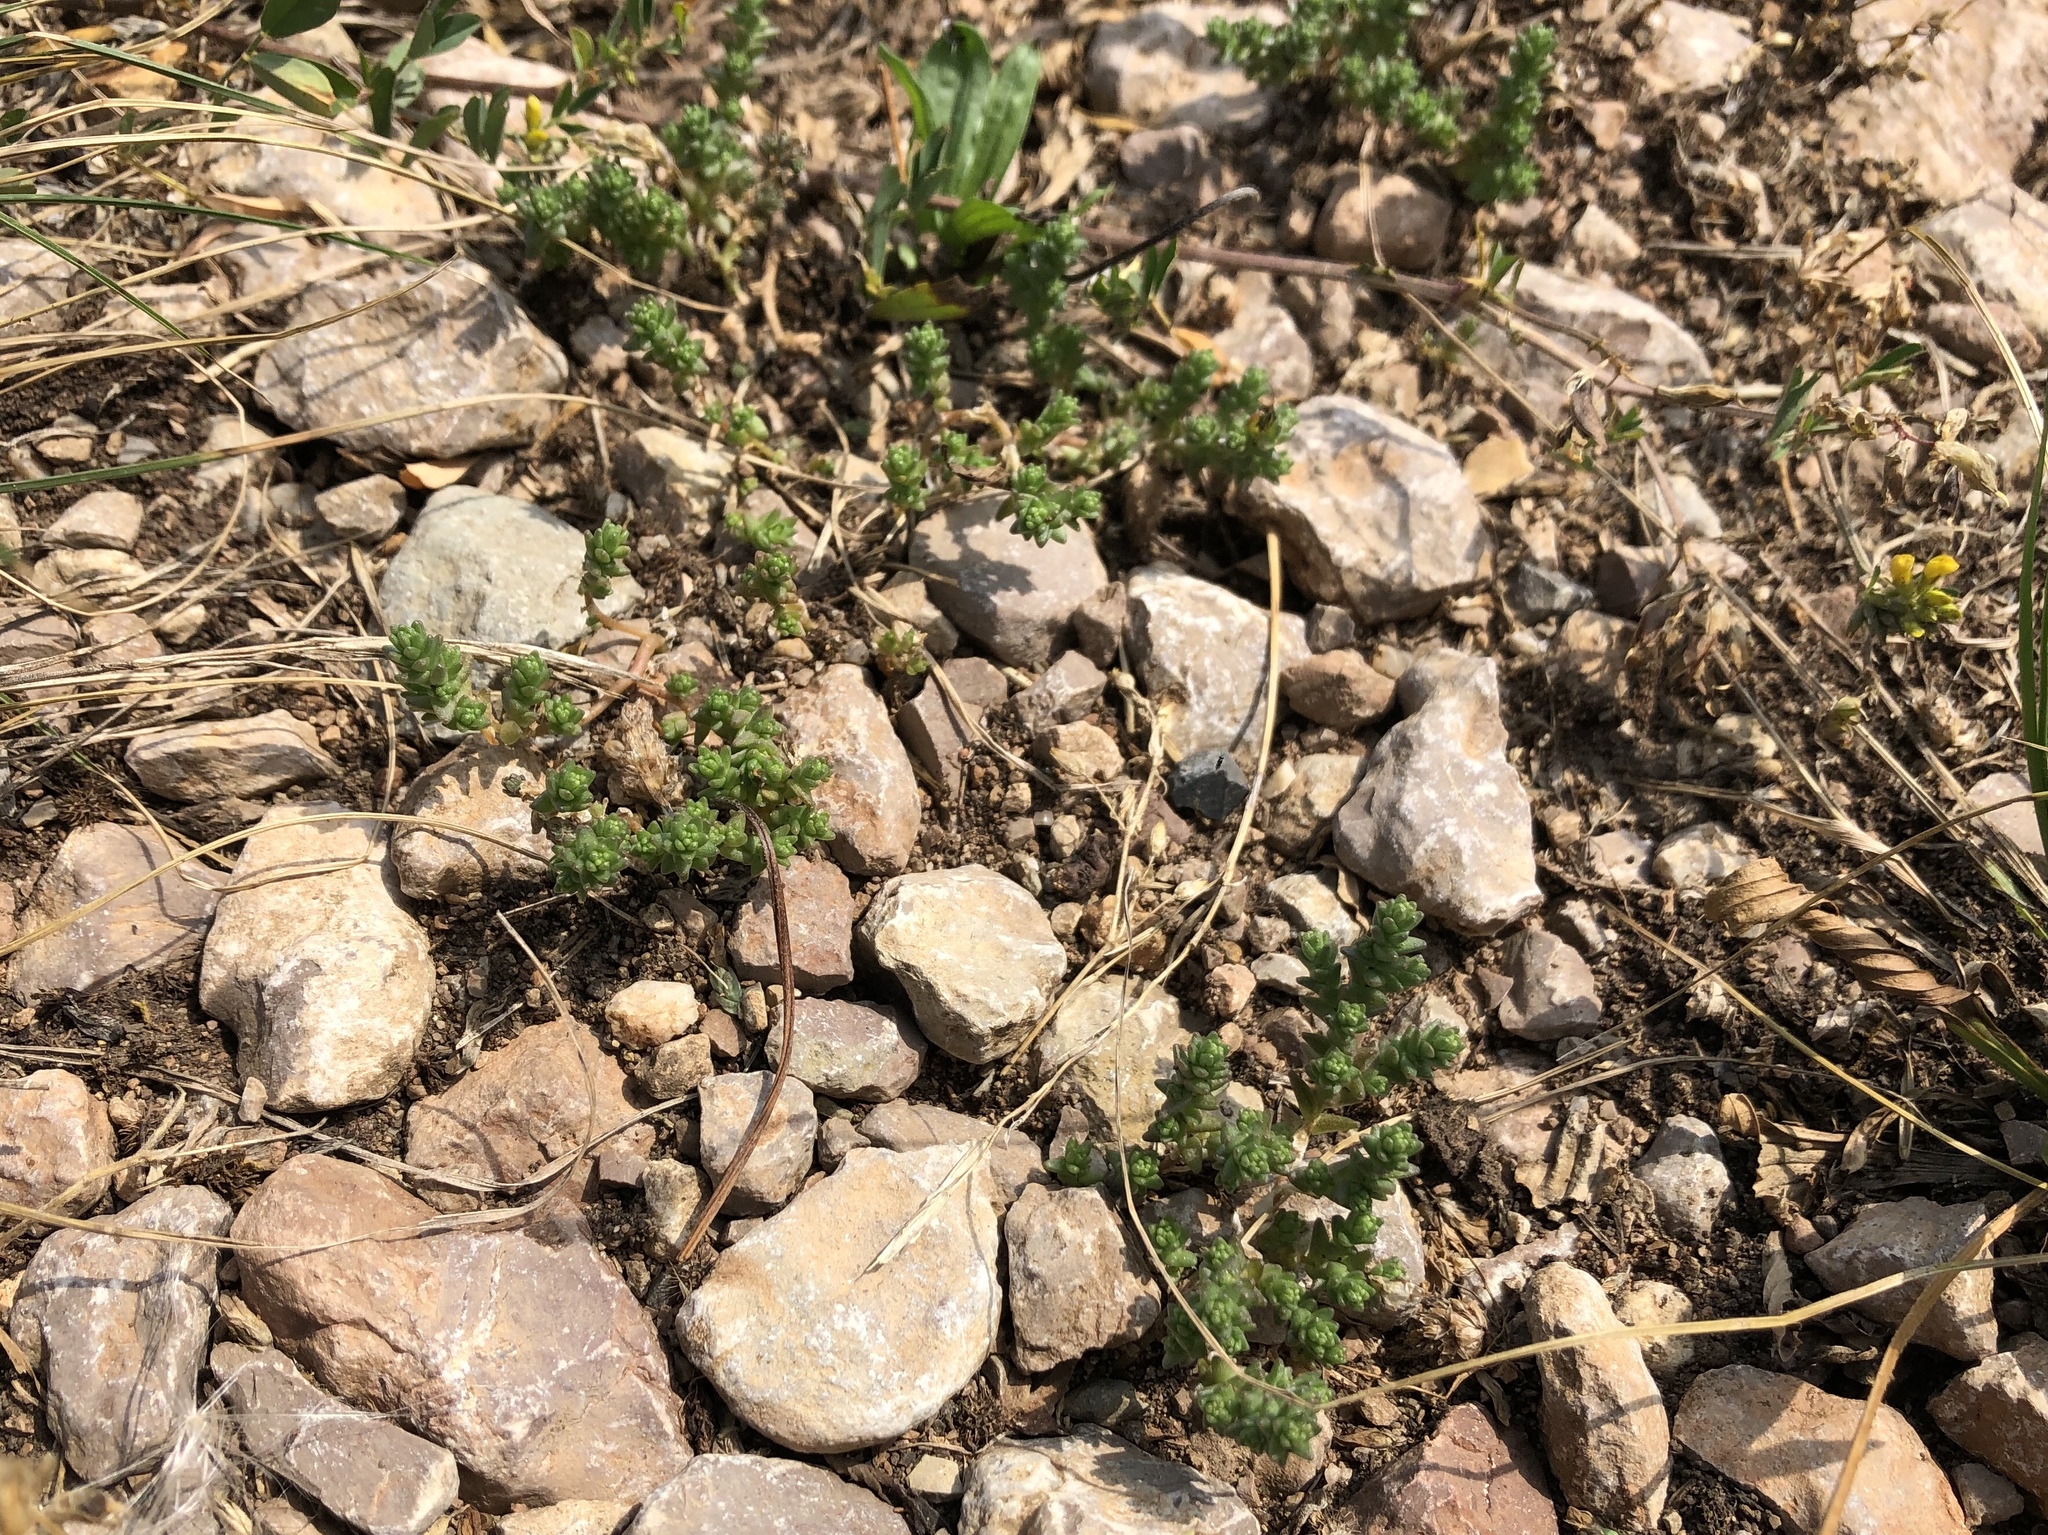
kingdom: Plantae
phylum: Tracheophyta
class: Magnoliopsida
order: Saxifragales
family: Crassulaceae
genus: Sedum
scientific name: Sedum acre
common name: Biting stonecrop
